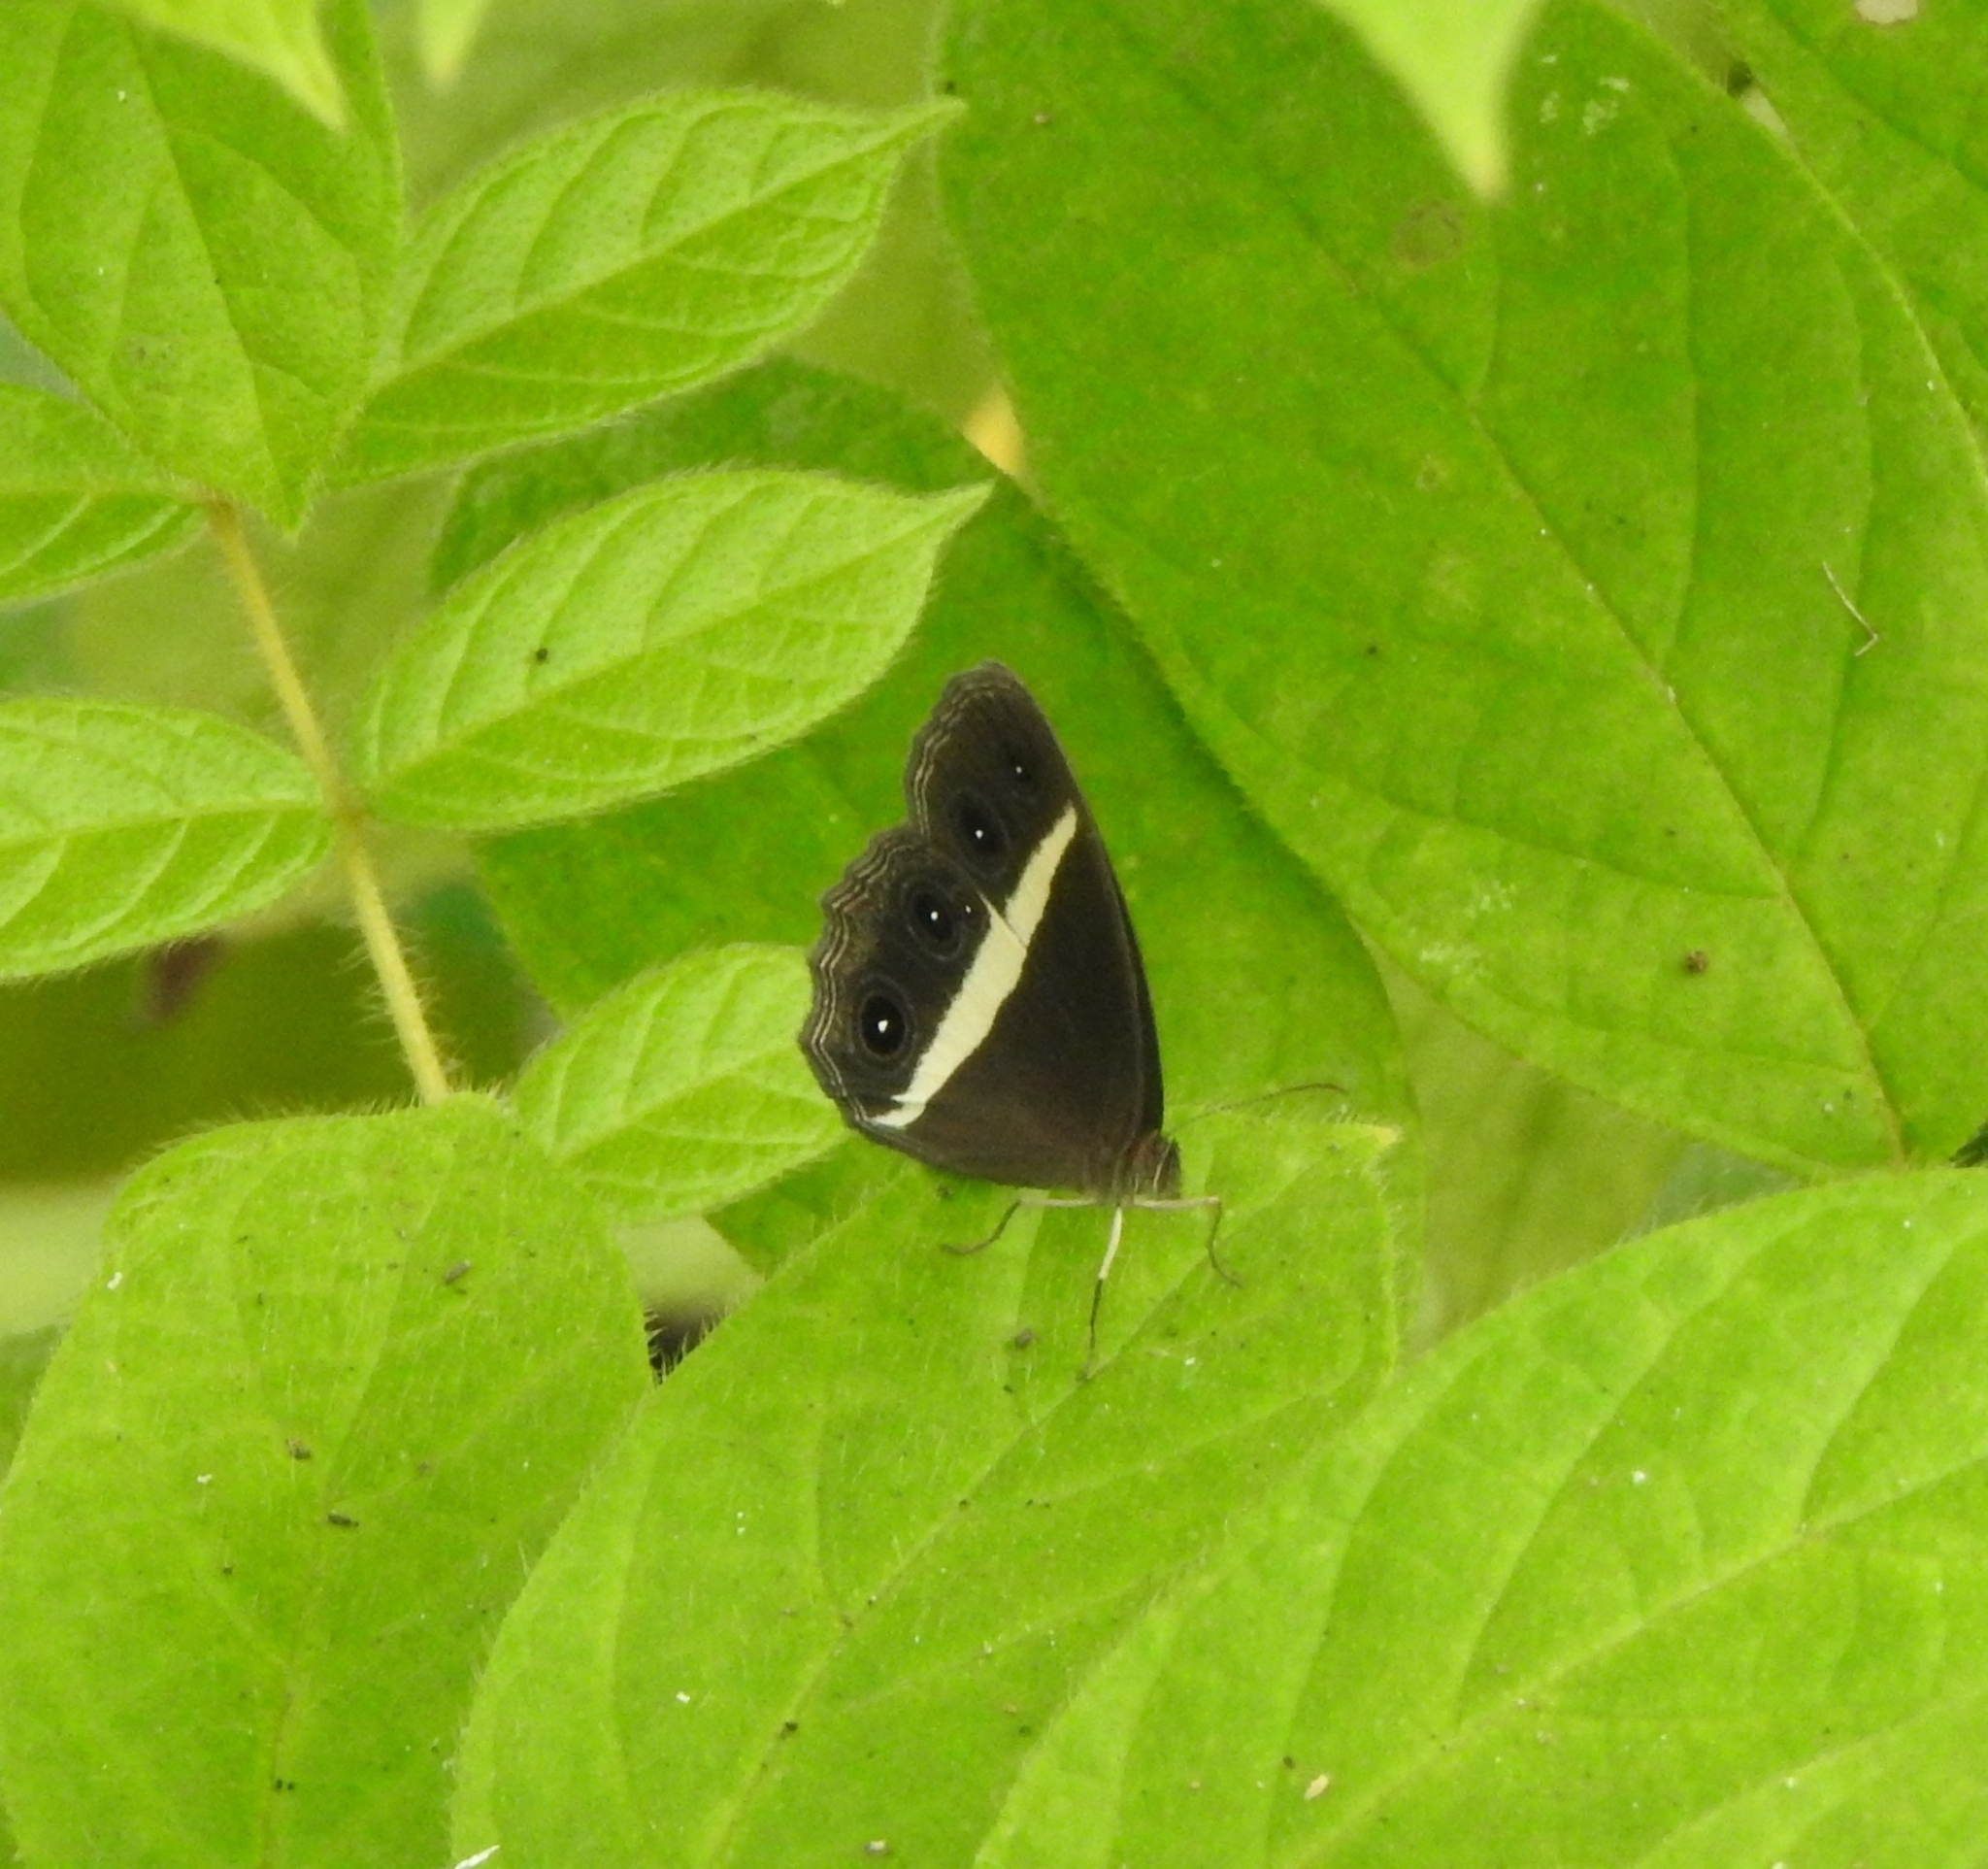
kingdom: Animalia
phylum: Arthropoda
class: Insecta
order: Lepidoptera
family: Nymphalidae
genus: Orsotriaena
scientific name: Orsotriaena medus
